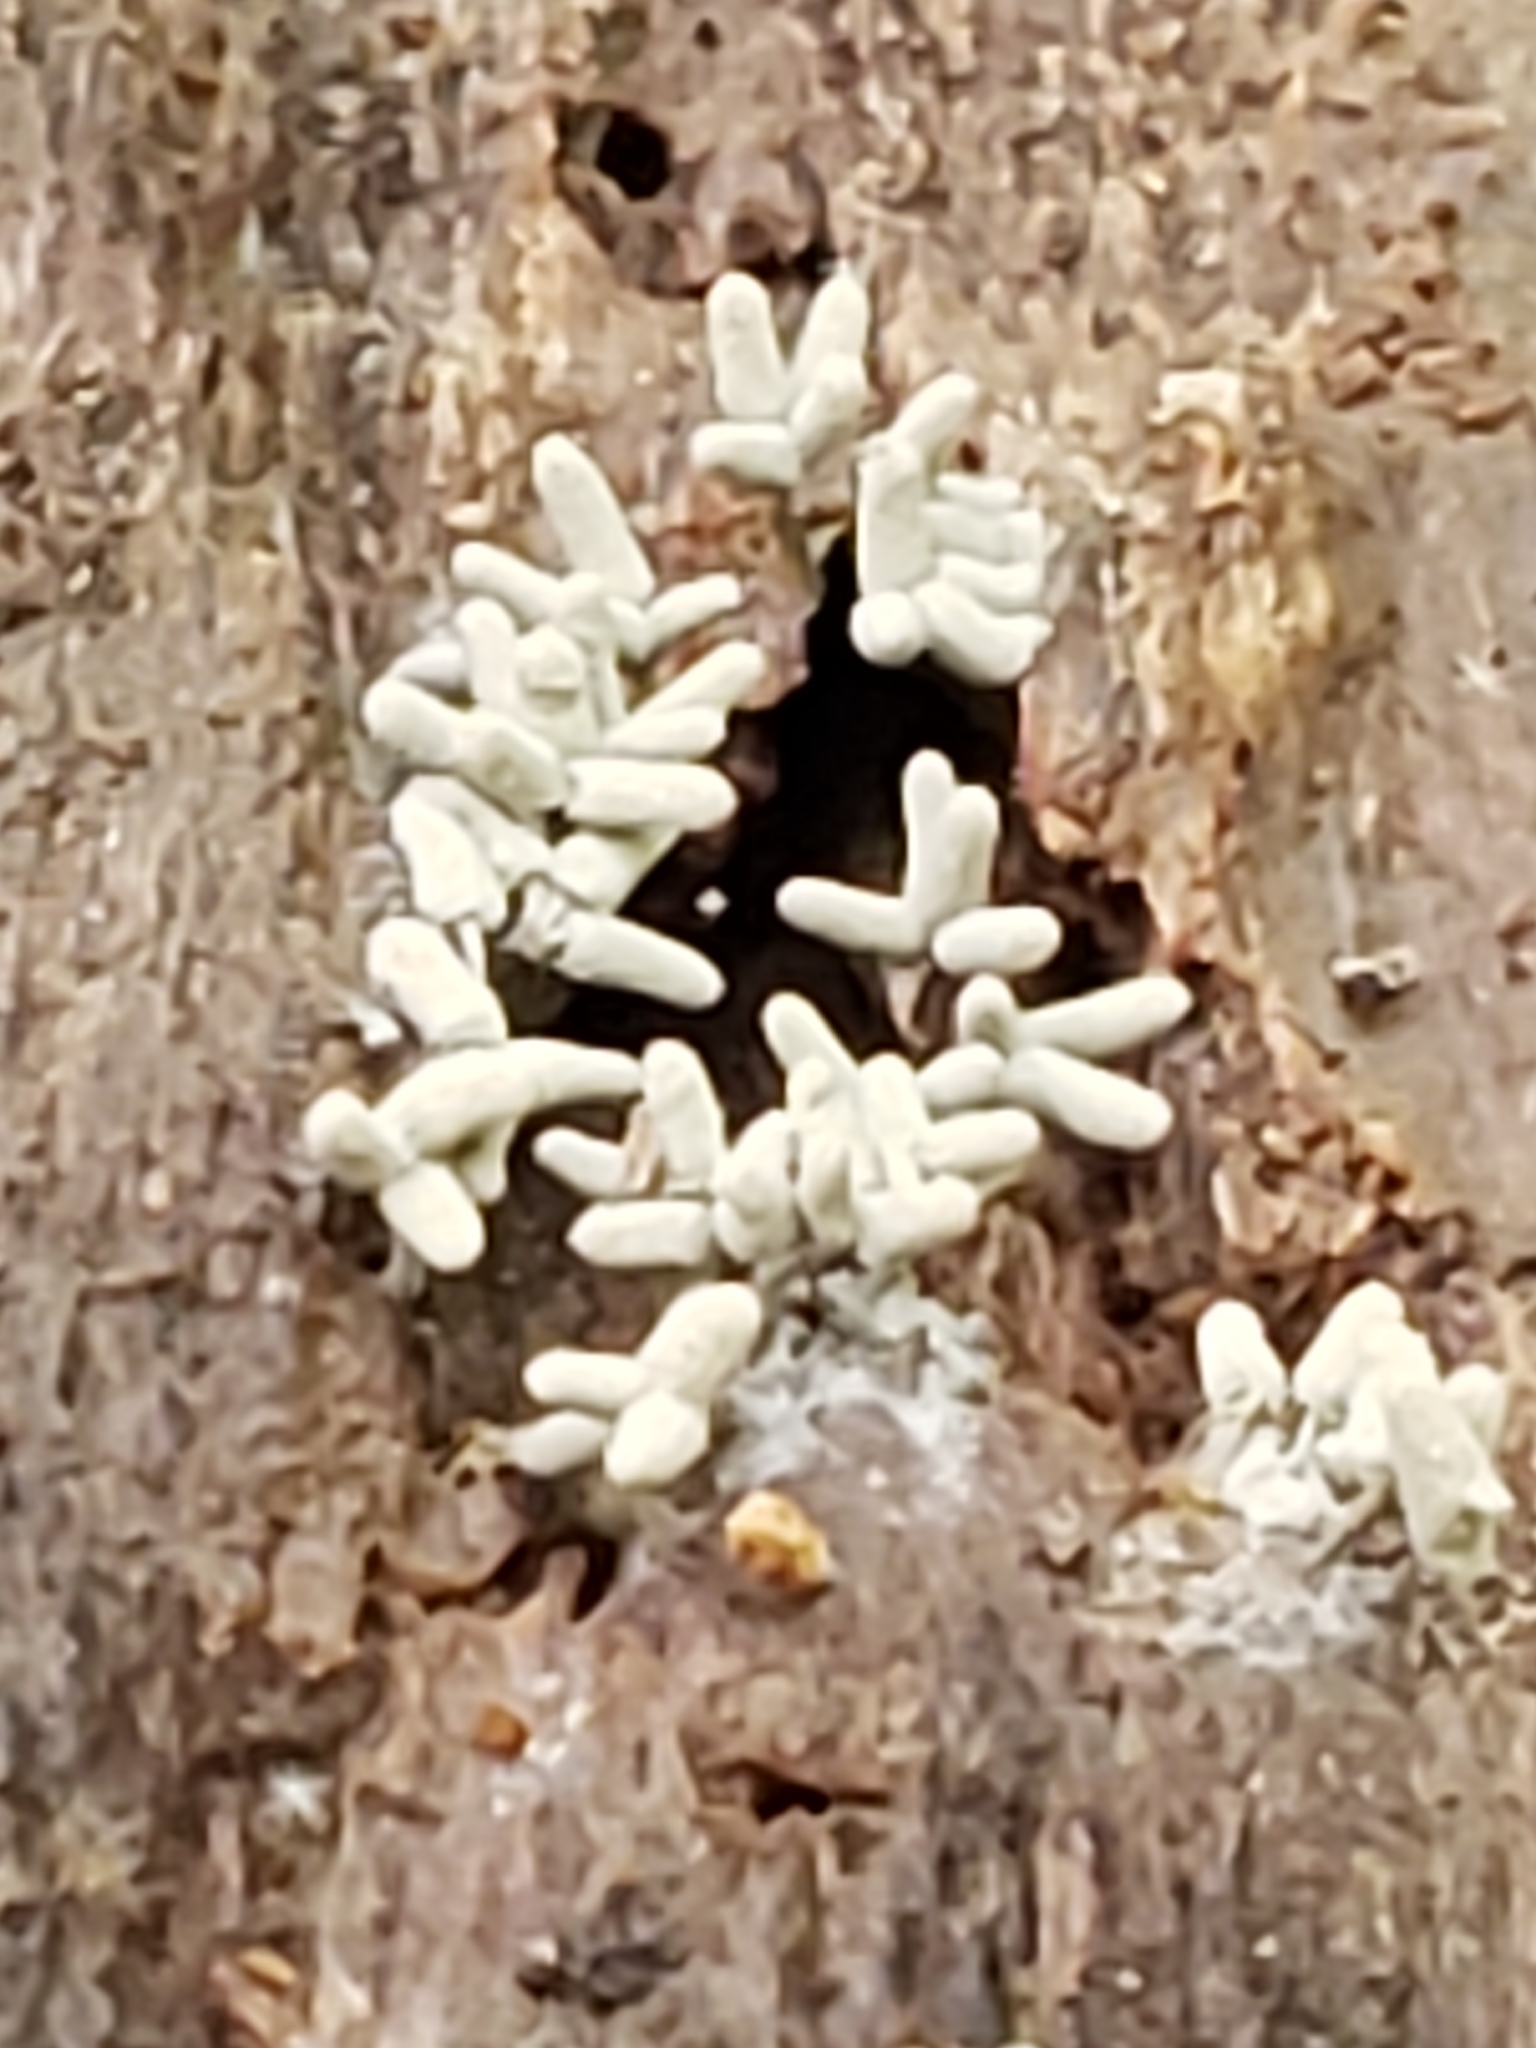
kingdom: Protozoa
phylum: Mycetozoa
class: Myxomycetes
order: Trichiales
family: Arcyriaceae
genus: Arcyria
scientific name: Arcyria cinerea
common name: White carnival candy slime mold
